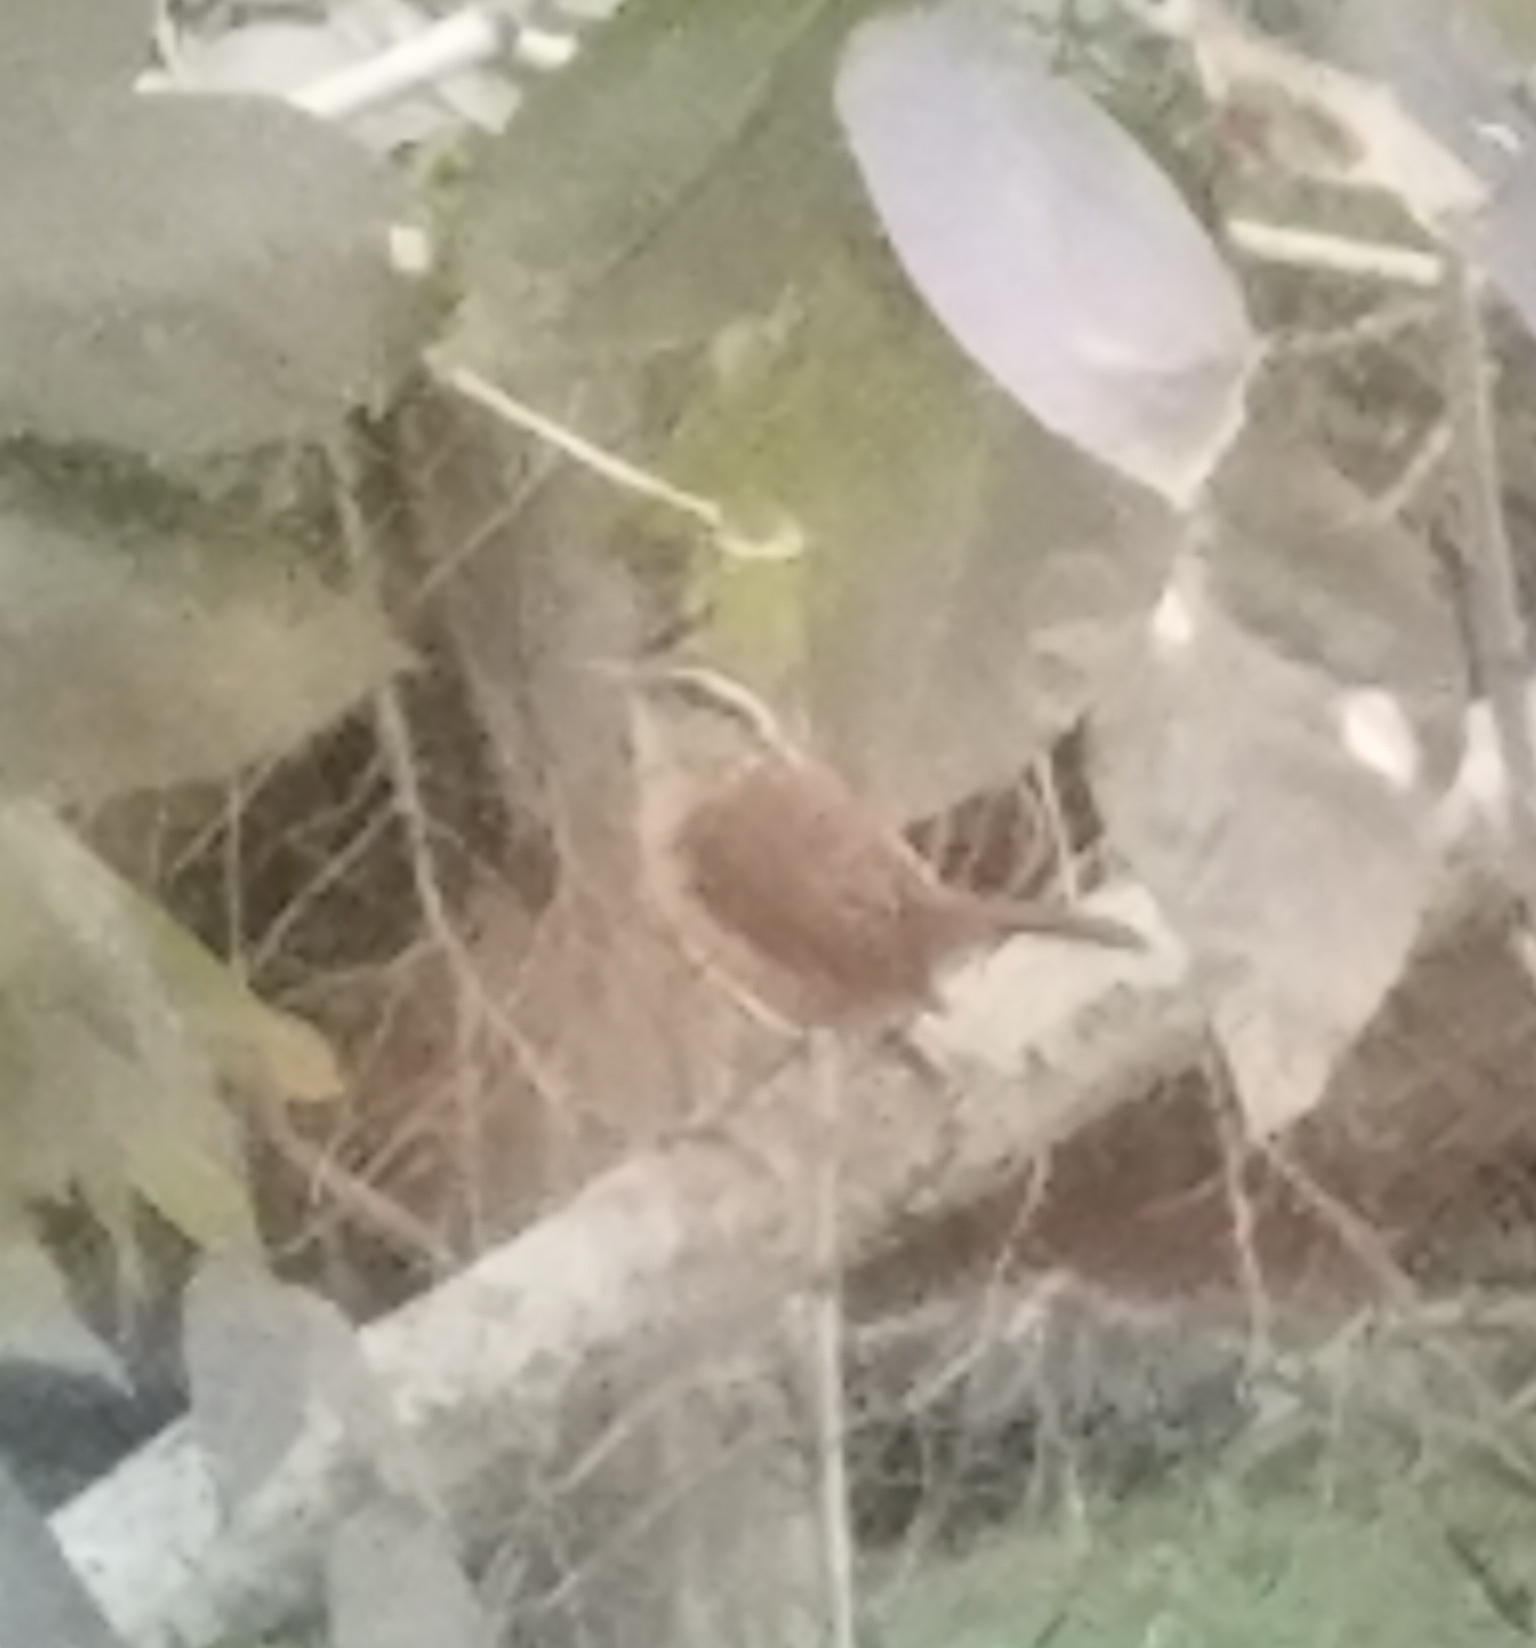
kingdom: Animalia
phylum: Chordata
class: Aves
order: Passeriformes
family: Troglodytidae
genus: Thryothorus
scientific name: Thryothorus ludovicianus
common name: Carolina wren
